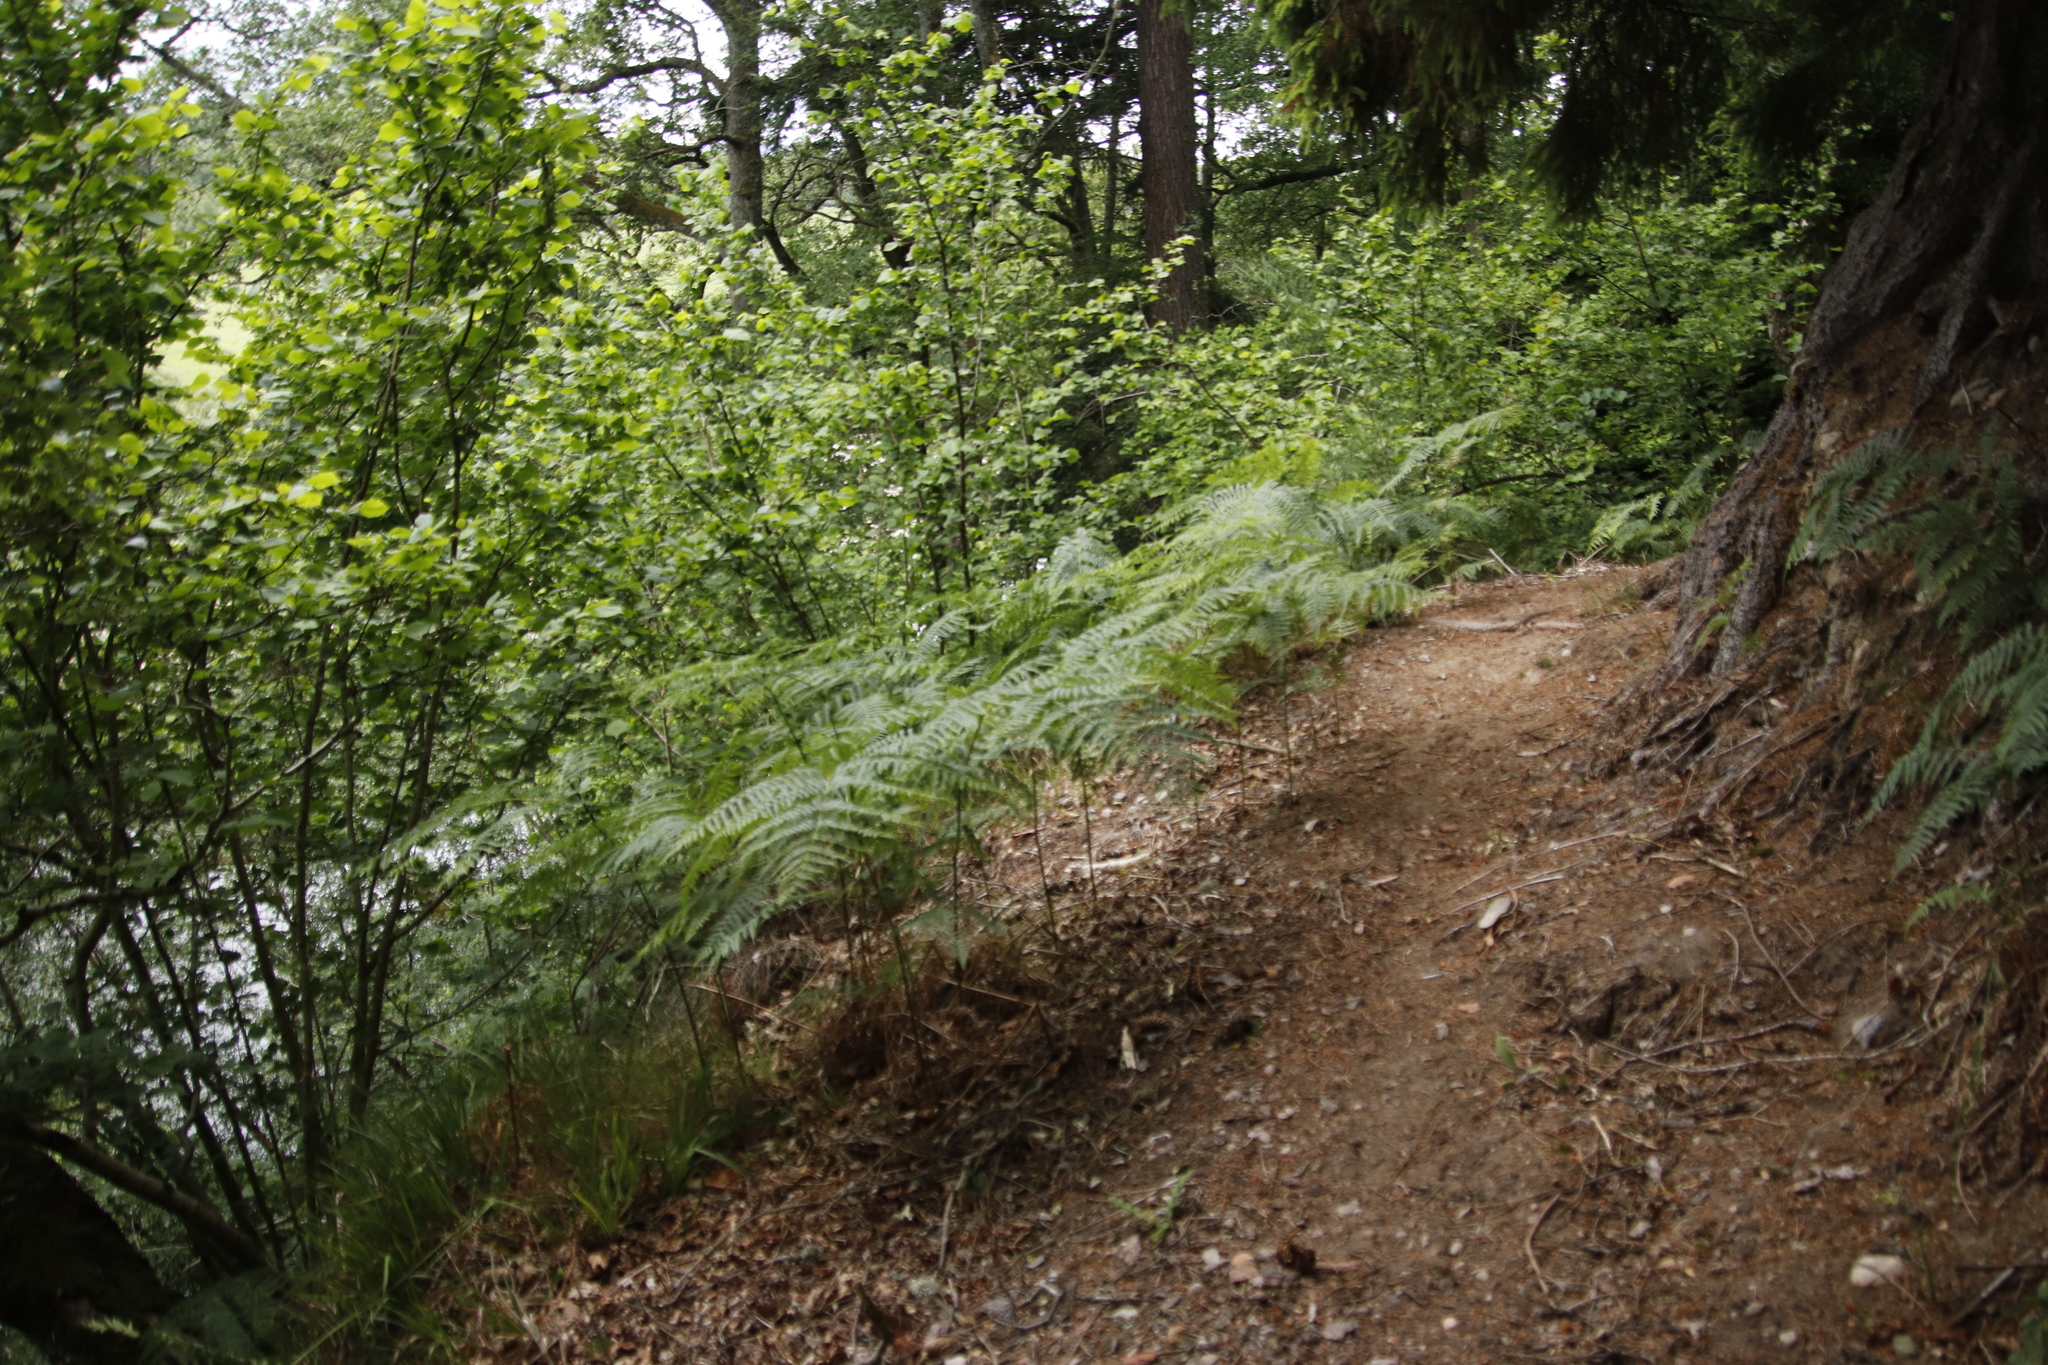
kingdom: Plantae
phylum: Tracheophyta
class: Polypodiopsida
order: Polypodiales
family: Dennstaedtiaceae
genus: Pteridium
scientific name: Pteridium aquilinum
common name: Bracken
